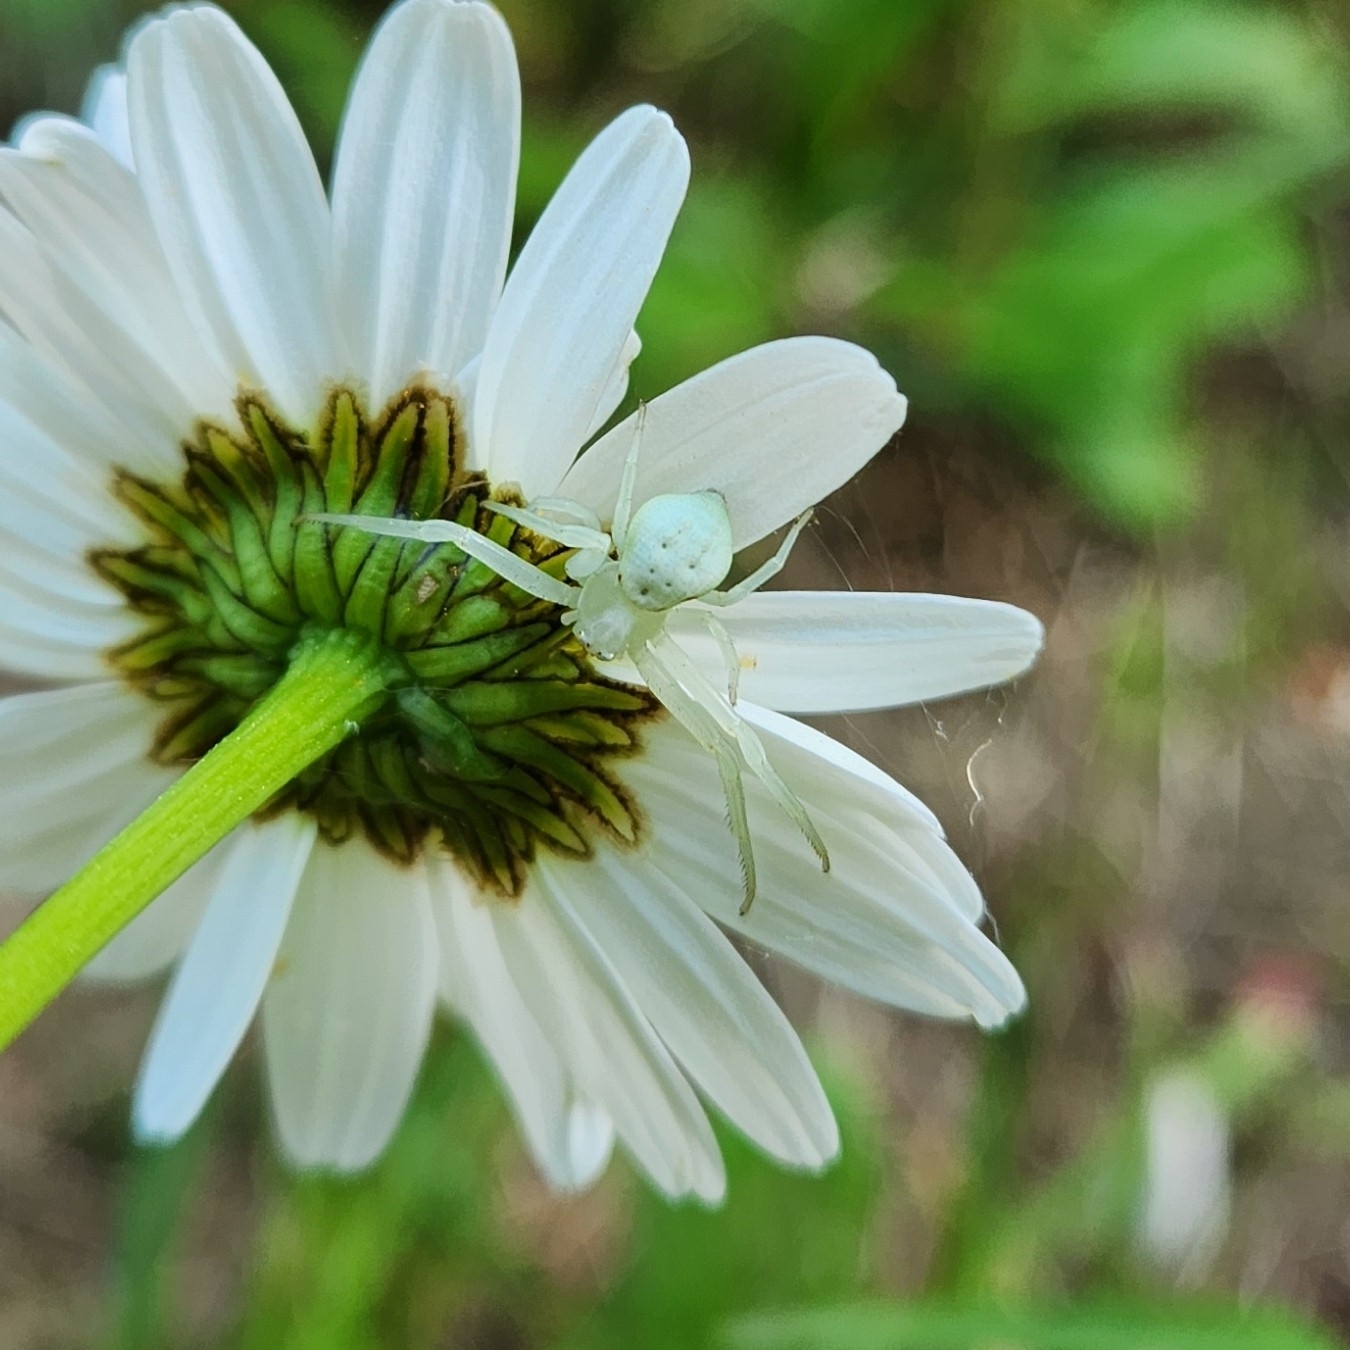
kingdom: Animalia
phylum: Arthropoda
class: Arachnida
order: Araneae
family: Thomisidae
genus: Misumena
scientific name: Misumena vatia
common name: Goldenrod crab spider
